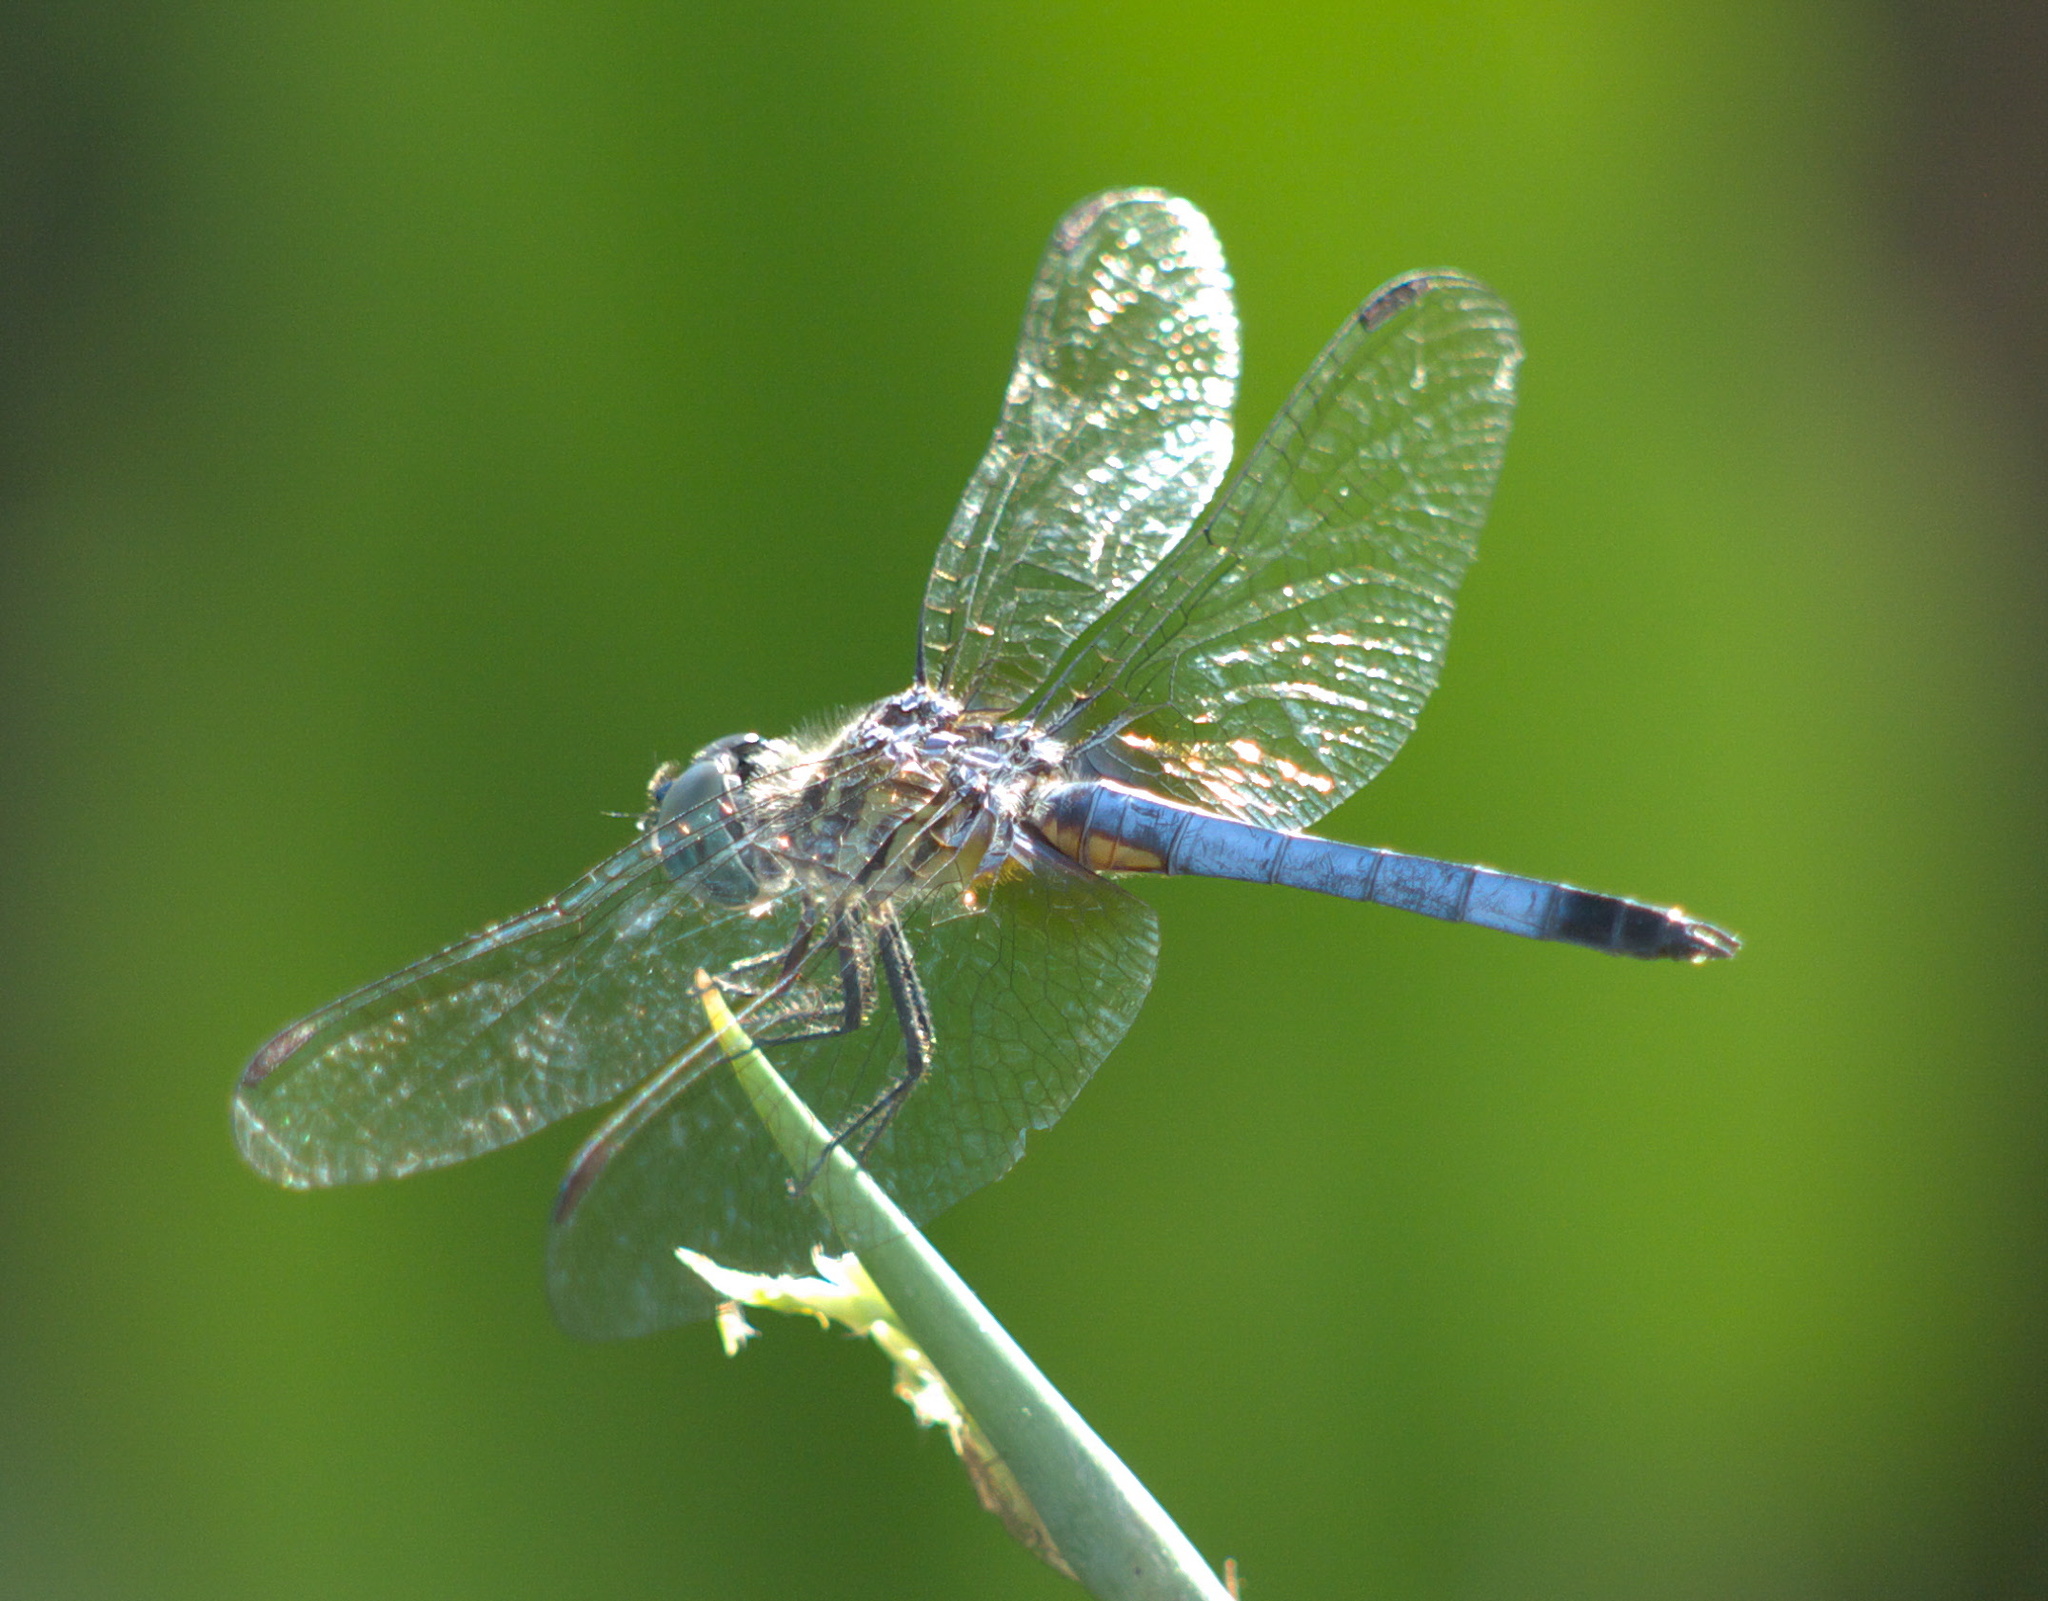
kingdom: Animalia
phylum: Arthropoda
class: Insecta
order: Odonata
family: Libellulidae
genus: Pachydiplax
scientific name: Pachydiplax longipennis
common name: Blue dasher
